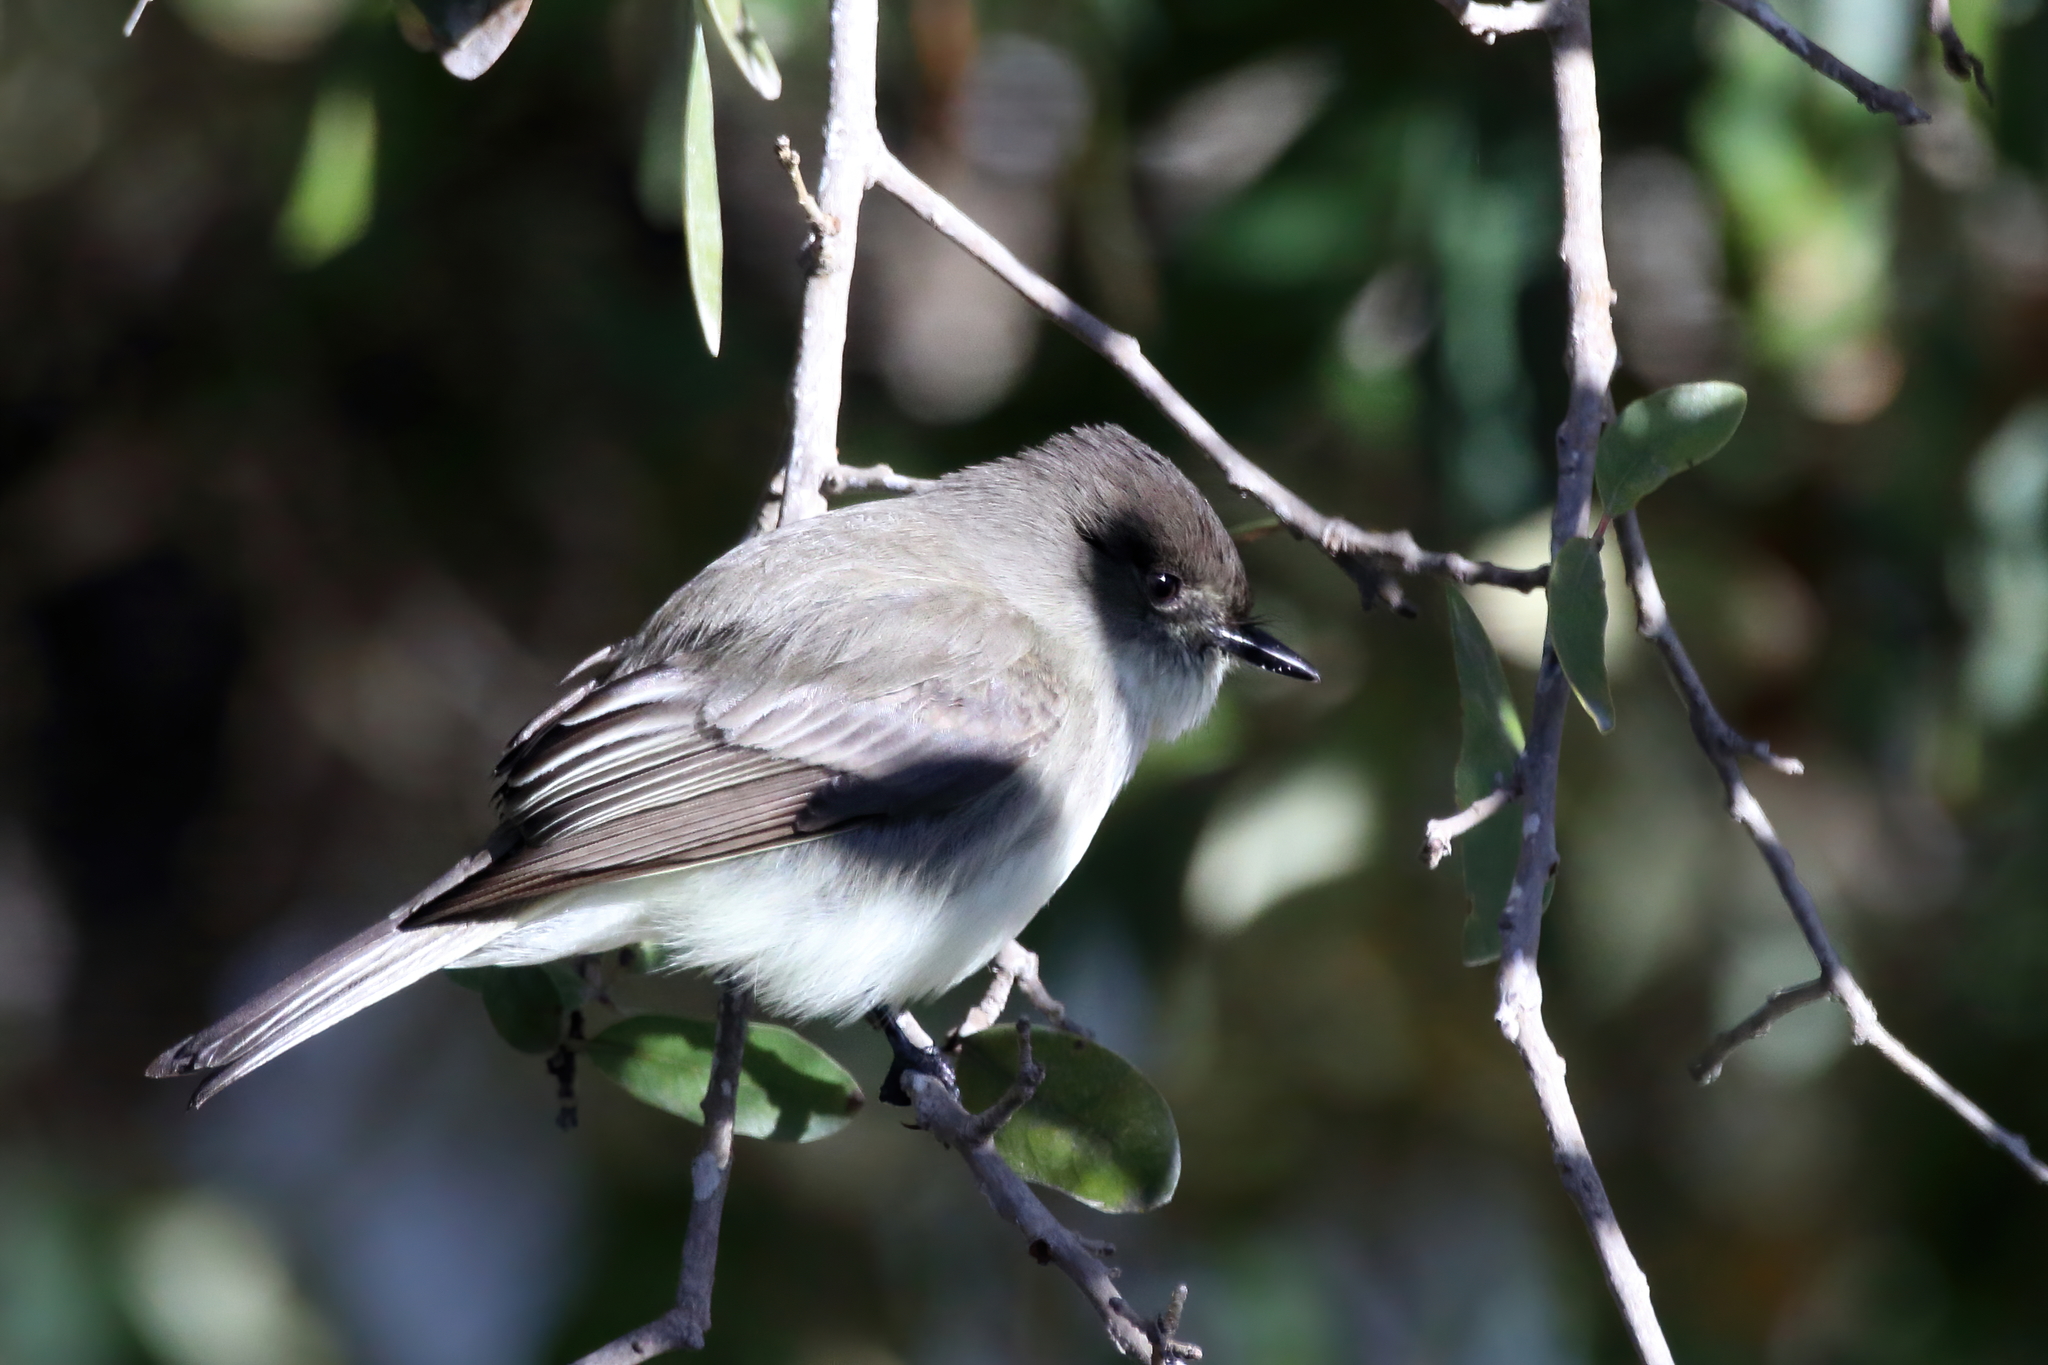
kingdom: Animalia
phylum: Chordata
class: Aves
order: Passeriformes
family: Tyrannidae
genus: Sayornis
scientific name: Sayornis phoebe
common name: Eastern phoebe
